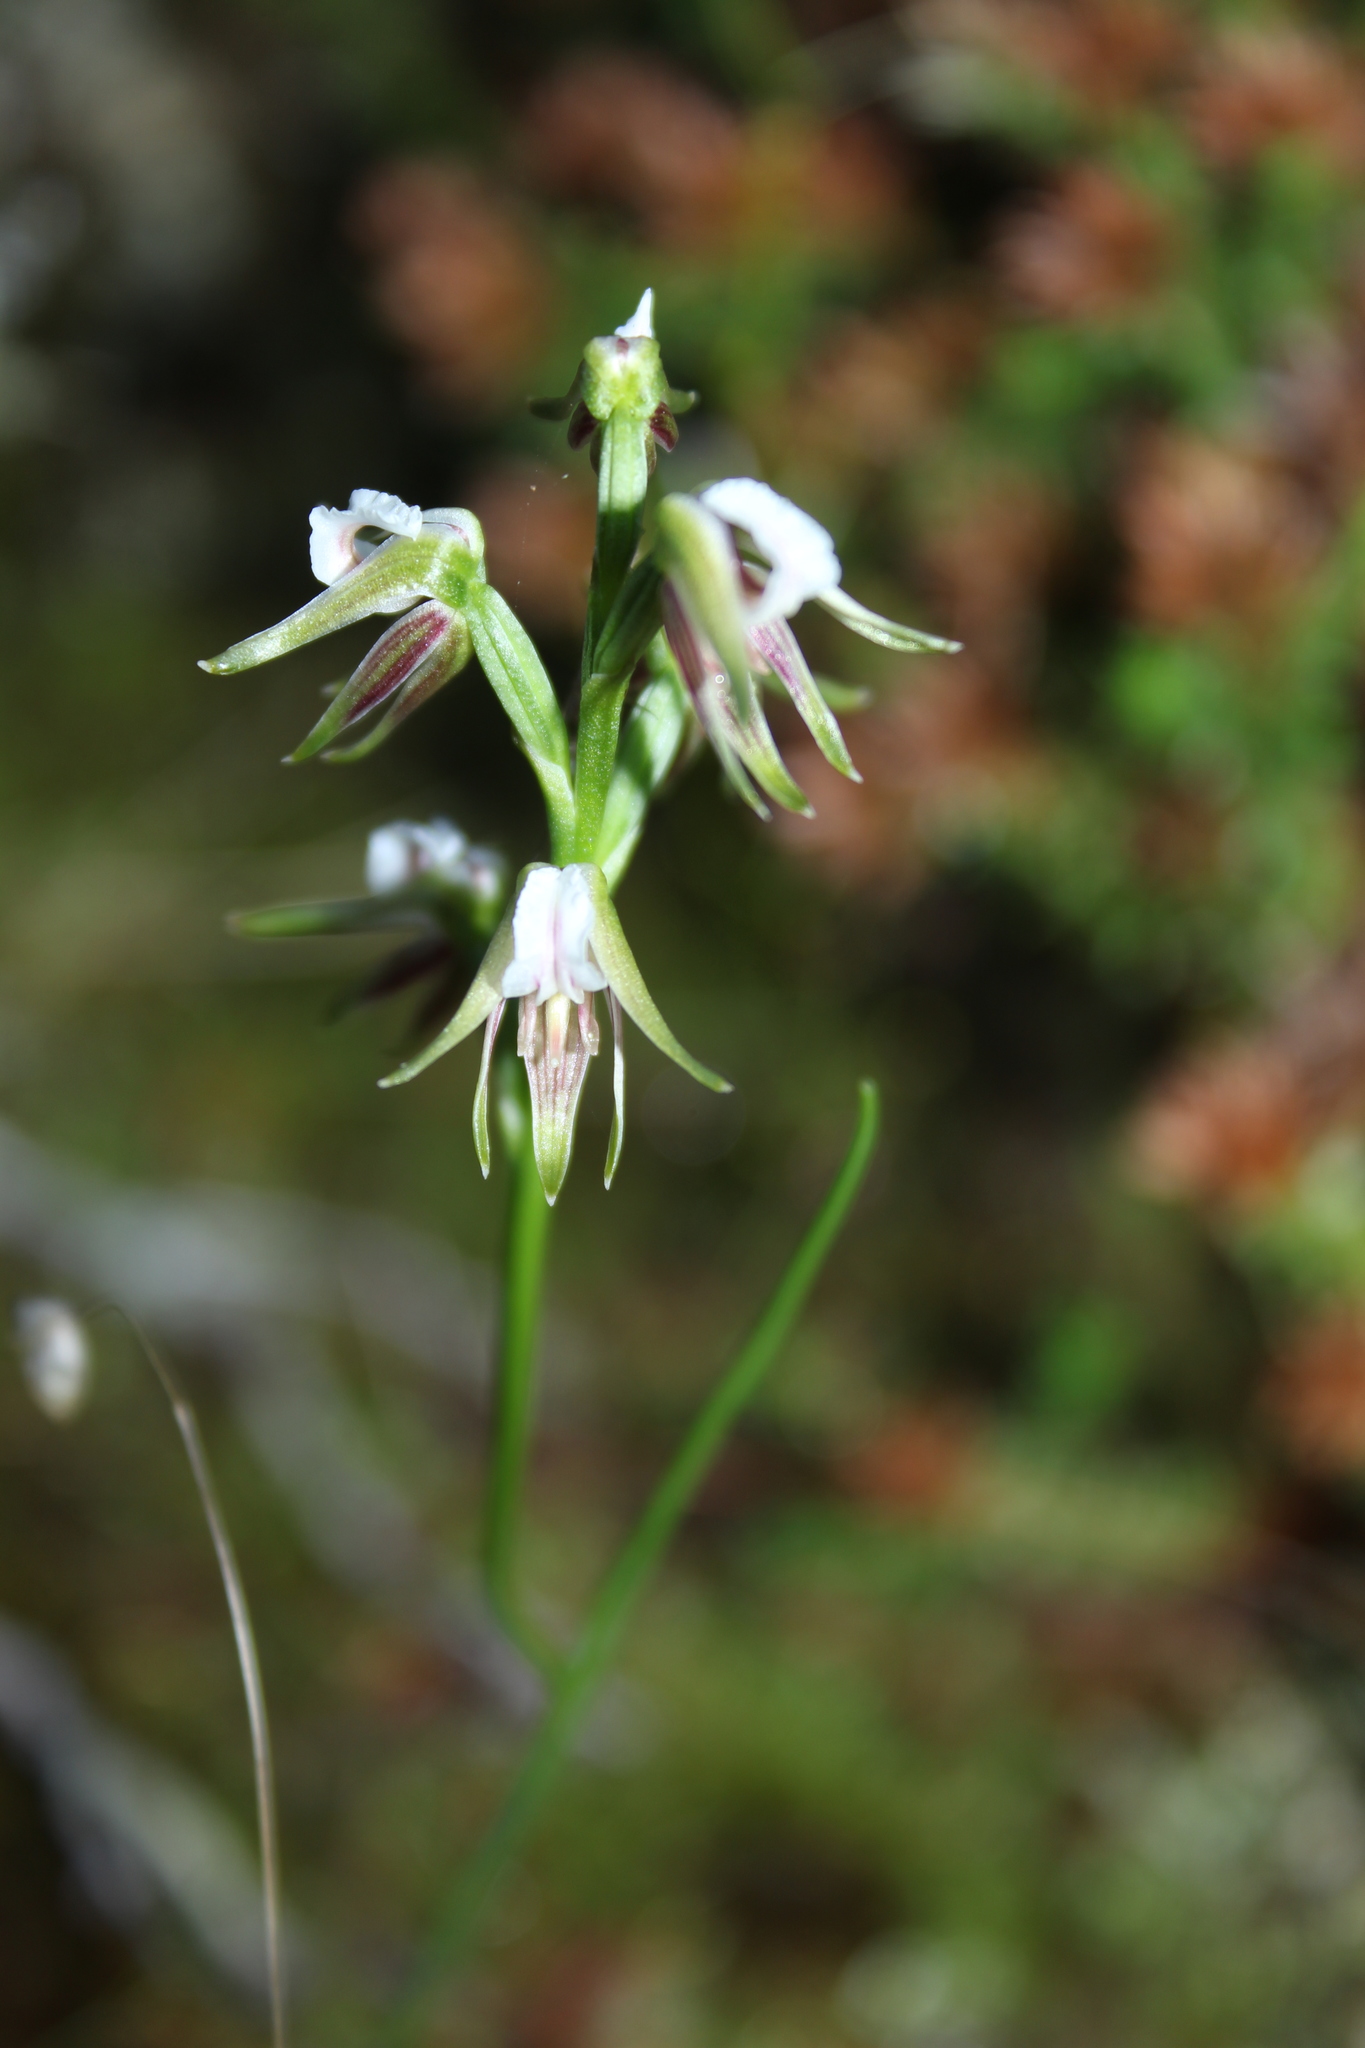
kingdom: Plantae
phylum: Tracheophyta
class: Liliopsida
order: Asparagales
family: Orchidaceae
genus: Prasophyllum
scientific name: Prasophyllum parvifolium
